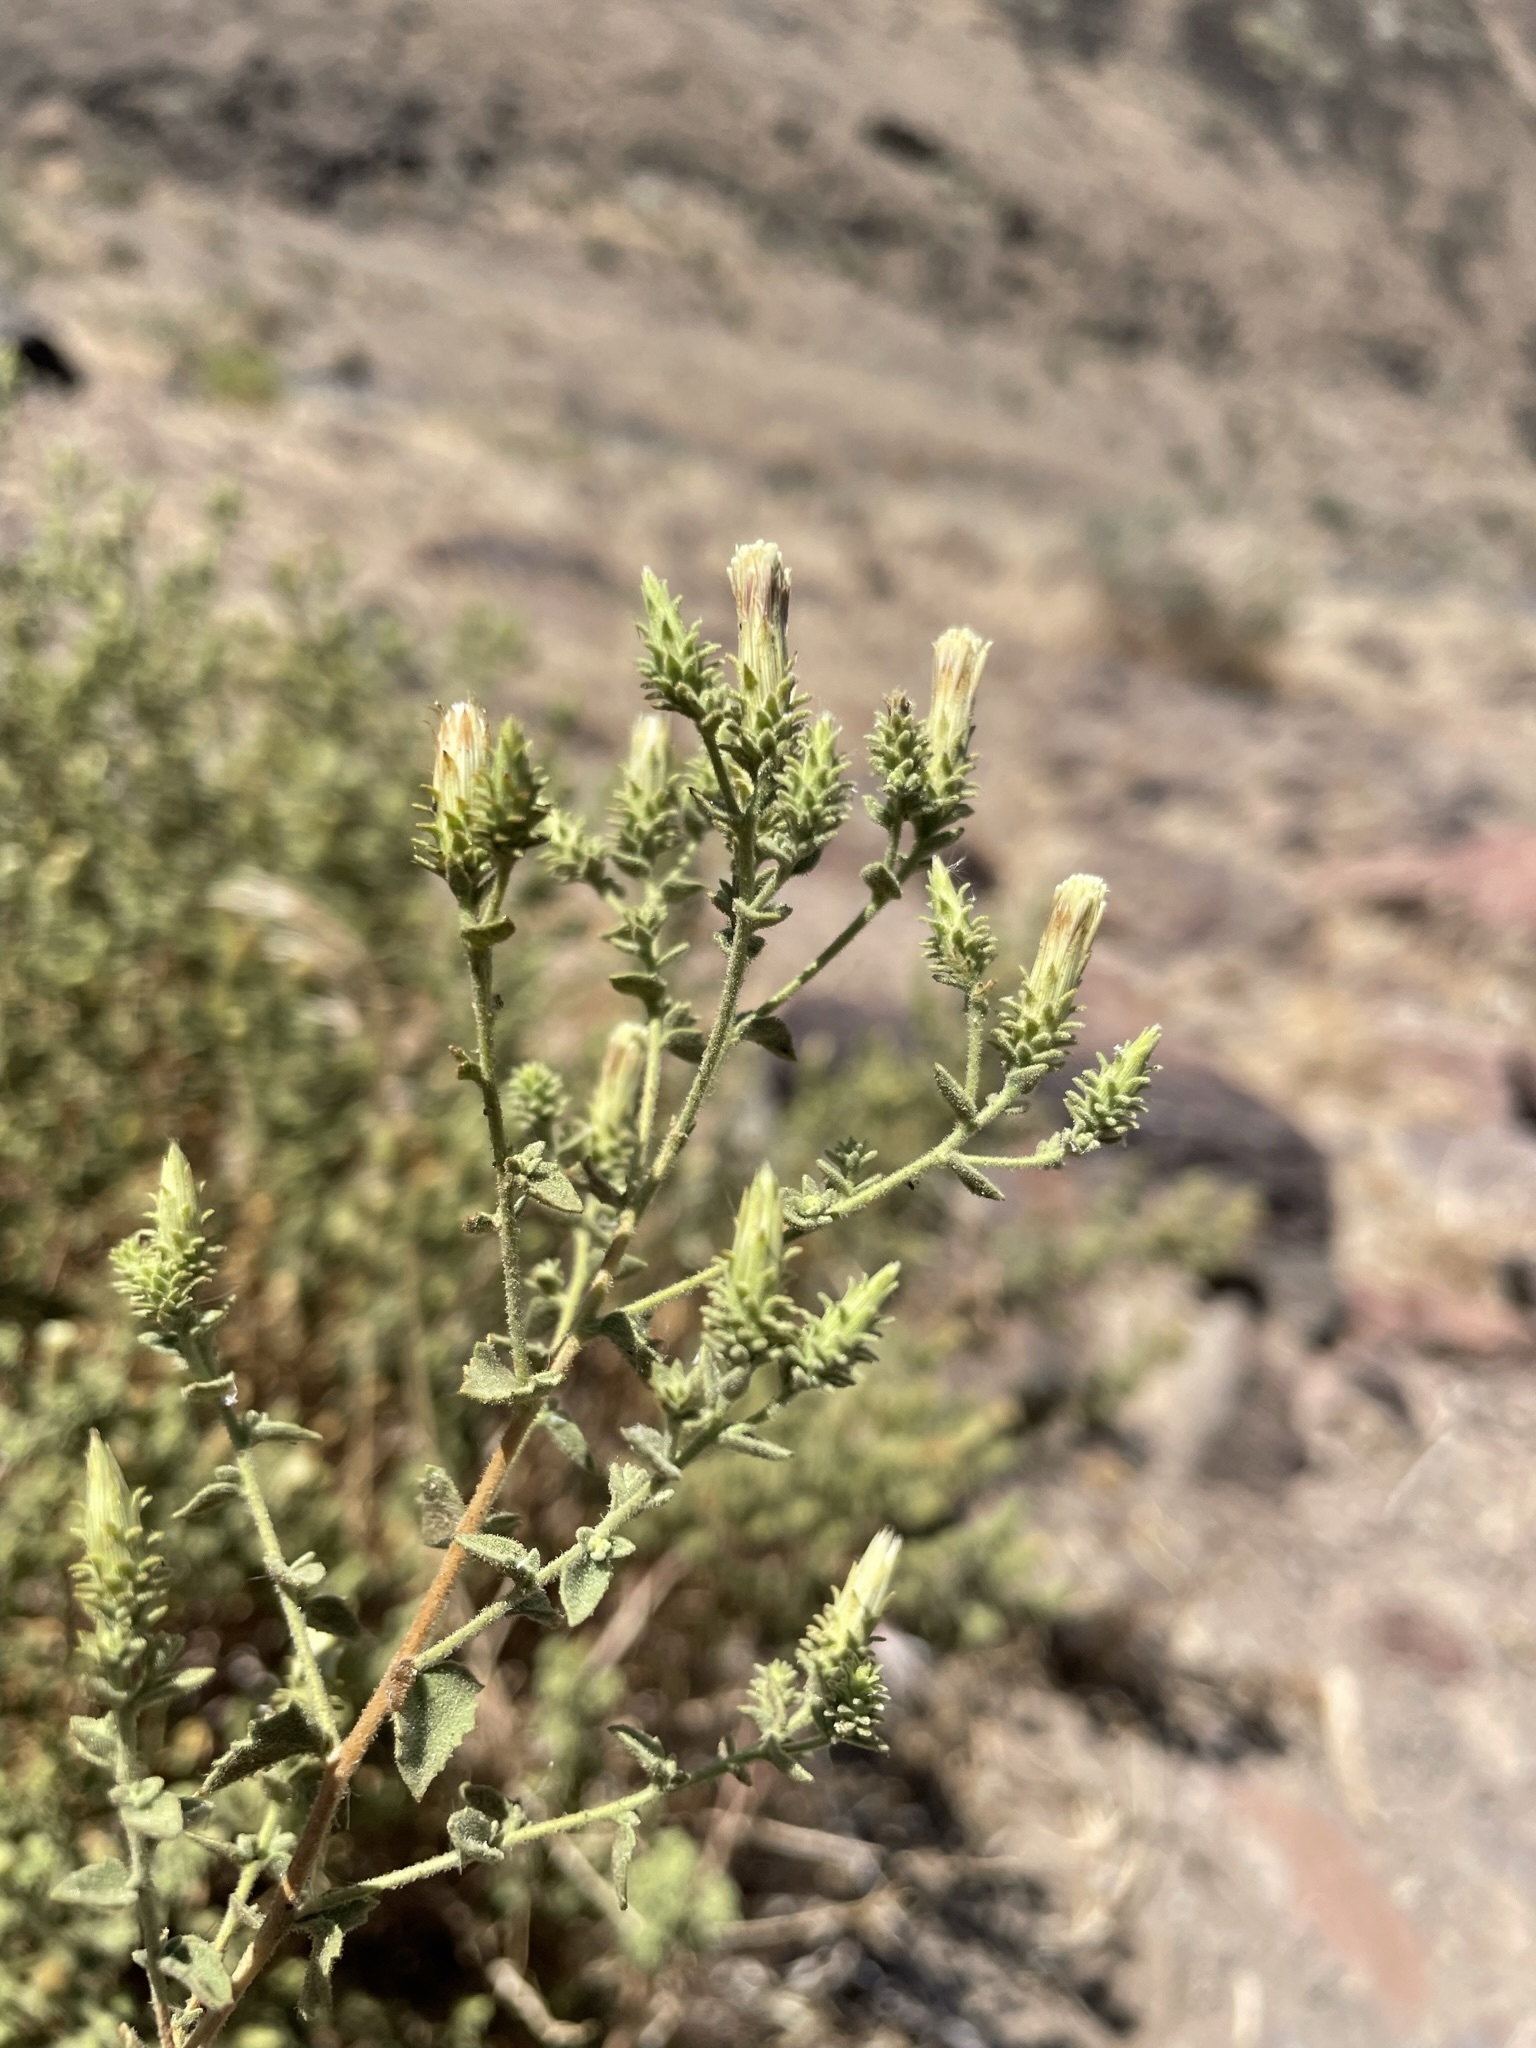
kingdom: Plantae
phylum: Tracheophyta
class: Magnoliopsida
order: Asterales
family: Asteraceae
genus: Brickellia
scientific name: Brickellia microphylla
